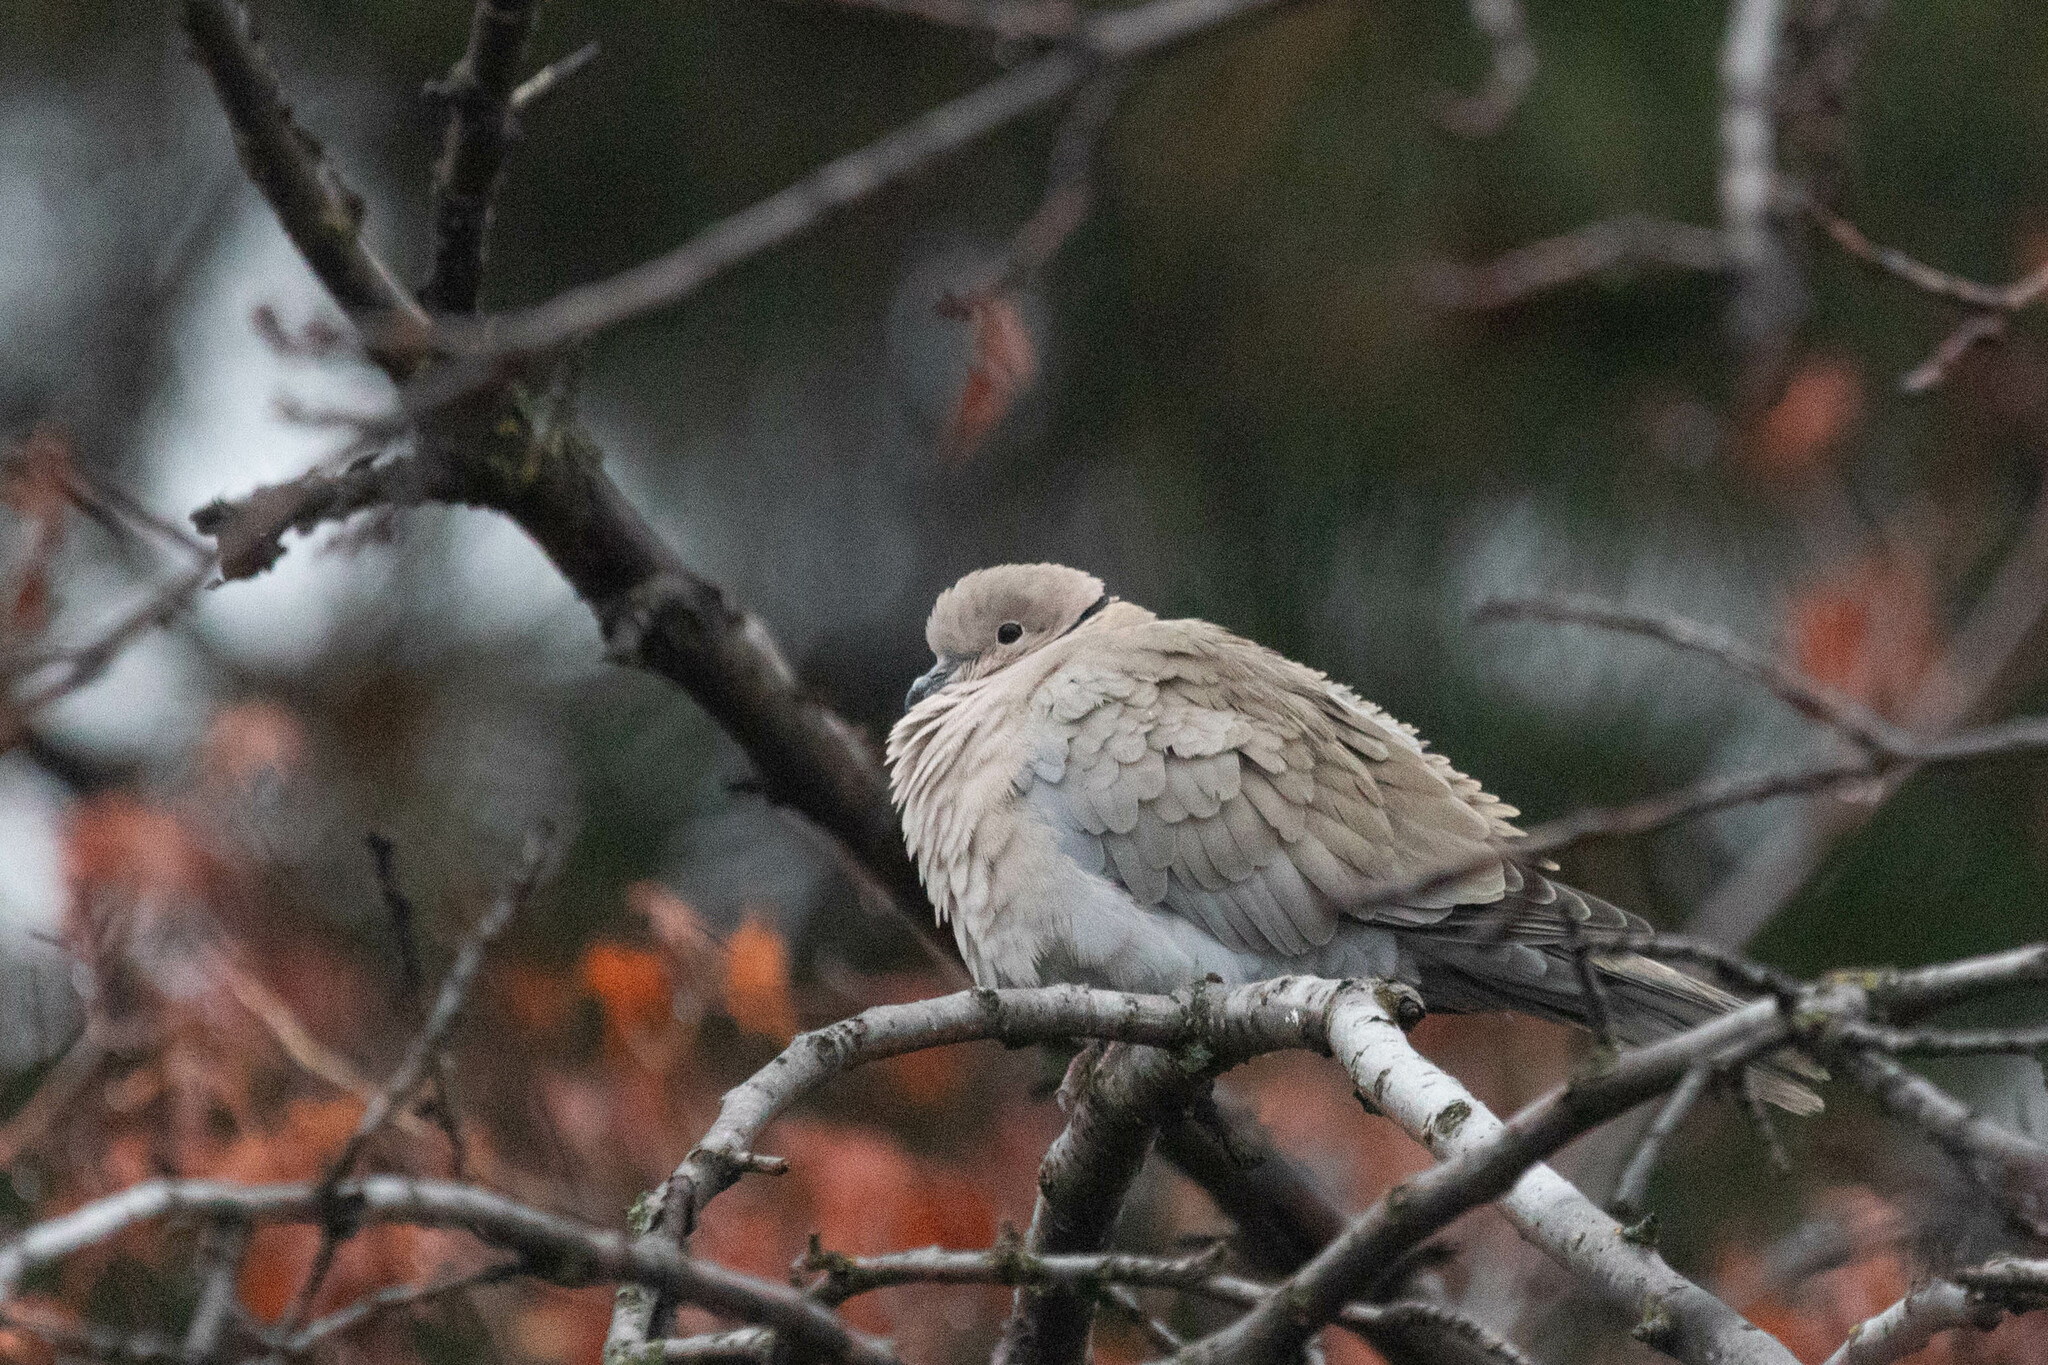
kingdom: Animalia
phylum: Chordata
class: Aves
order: Columbiformes
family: Columbidae
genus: Streptopelia
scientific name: Streptopelia decaocto
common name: Eurasian collared dove
